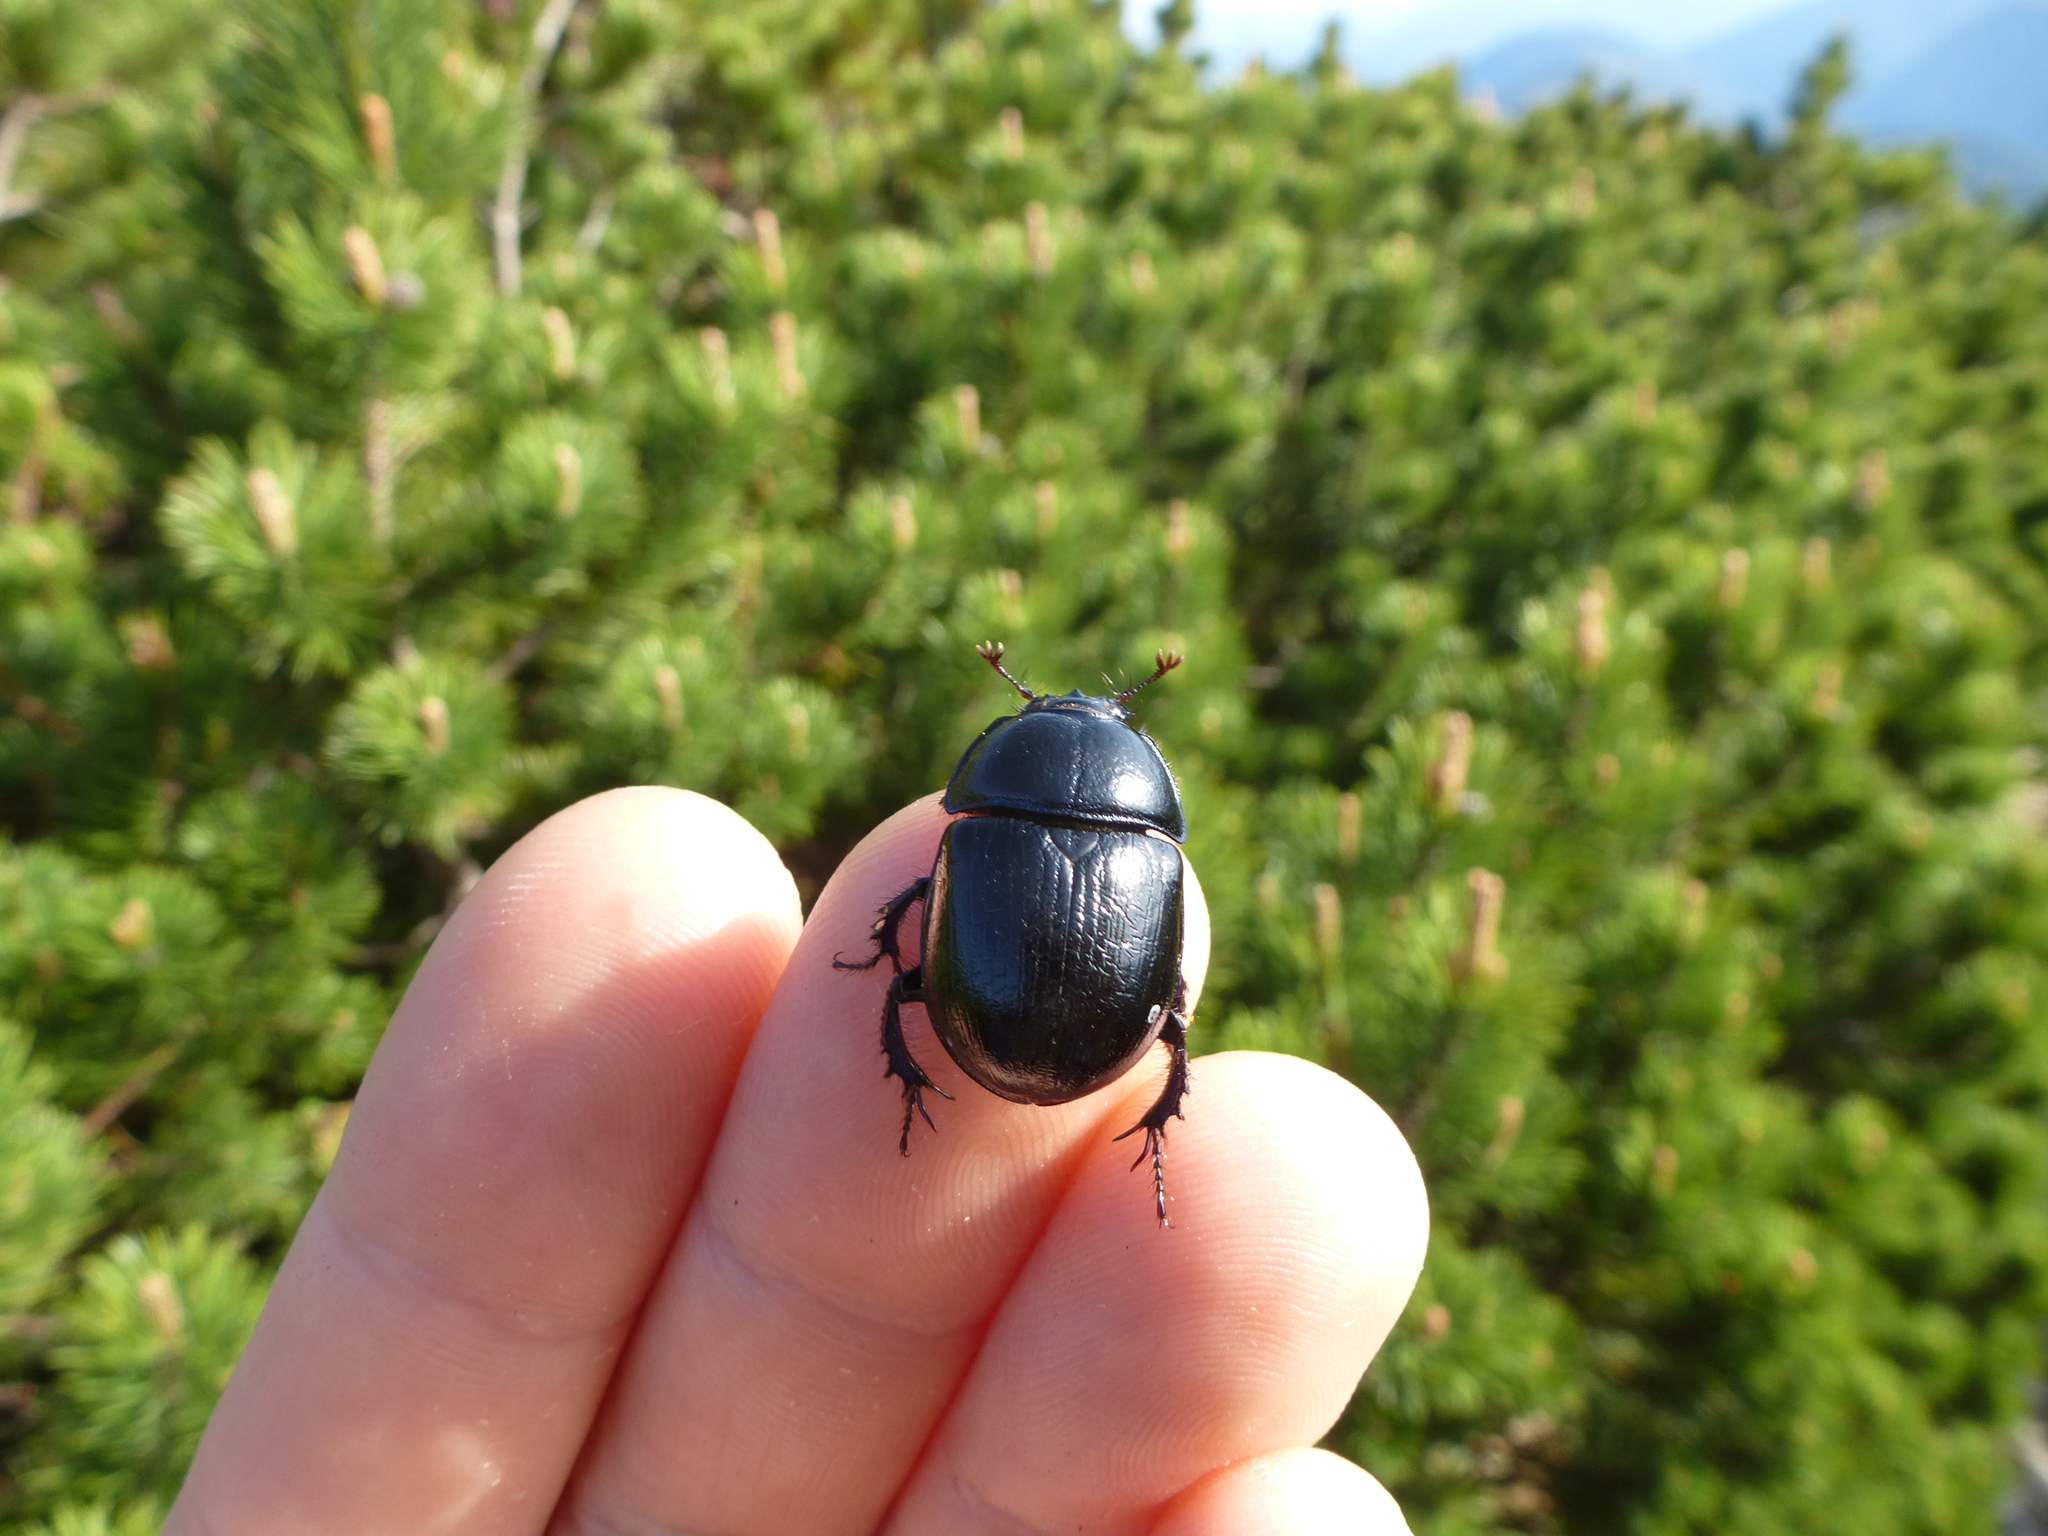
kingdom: Animalia
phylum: Arthropoda
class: Insecta
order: Coleoptera
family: Geotrupidae
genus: Anoplotrupes
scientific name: Anoplotrupes stercorosus
